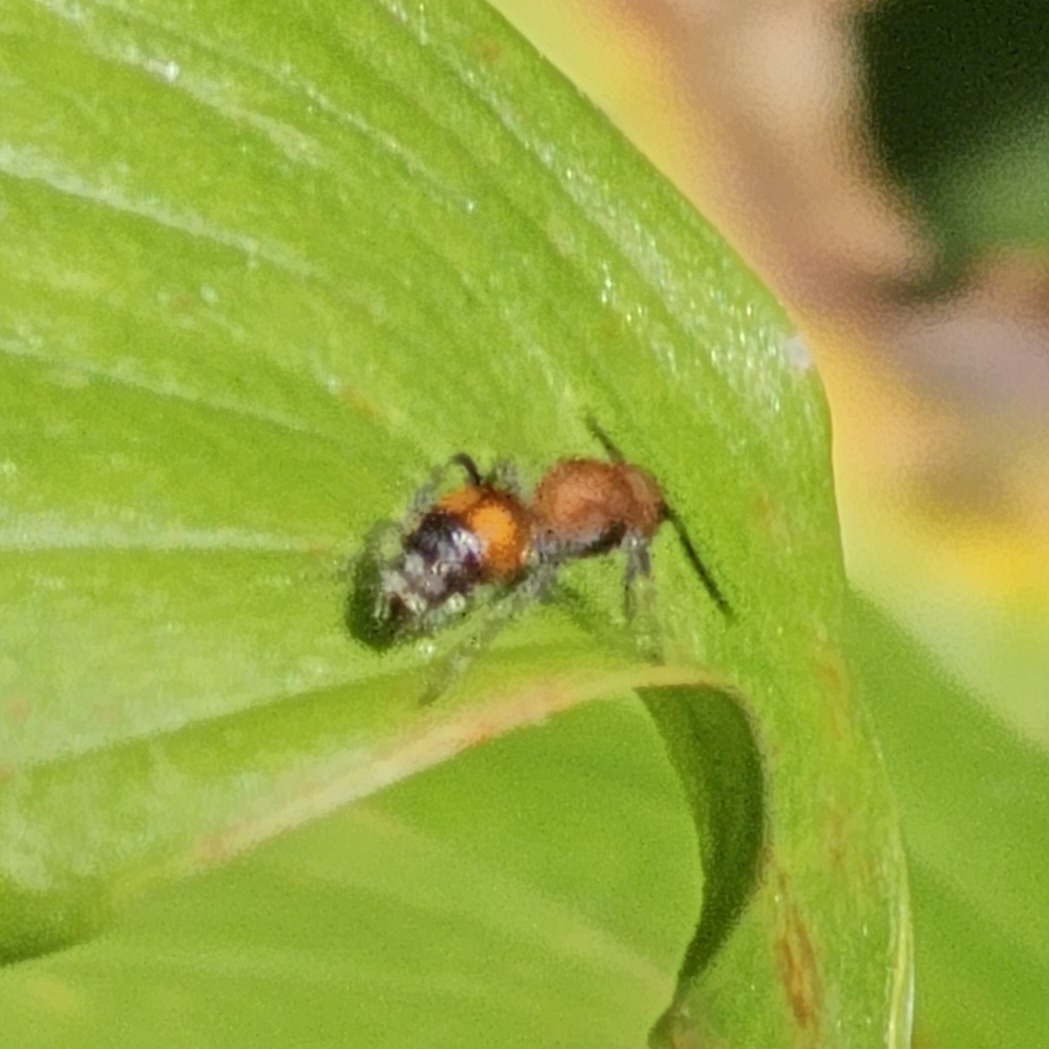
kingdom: Animalia
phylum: Arthropoda
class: Insecta
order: Hymenoptera
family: Mutillidae
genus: Dasymutilla
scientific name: Dasymutilla
